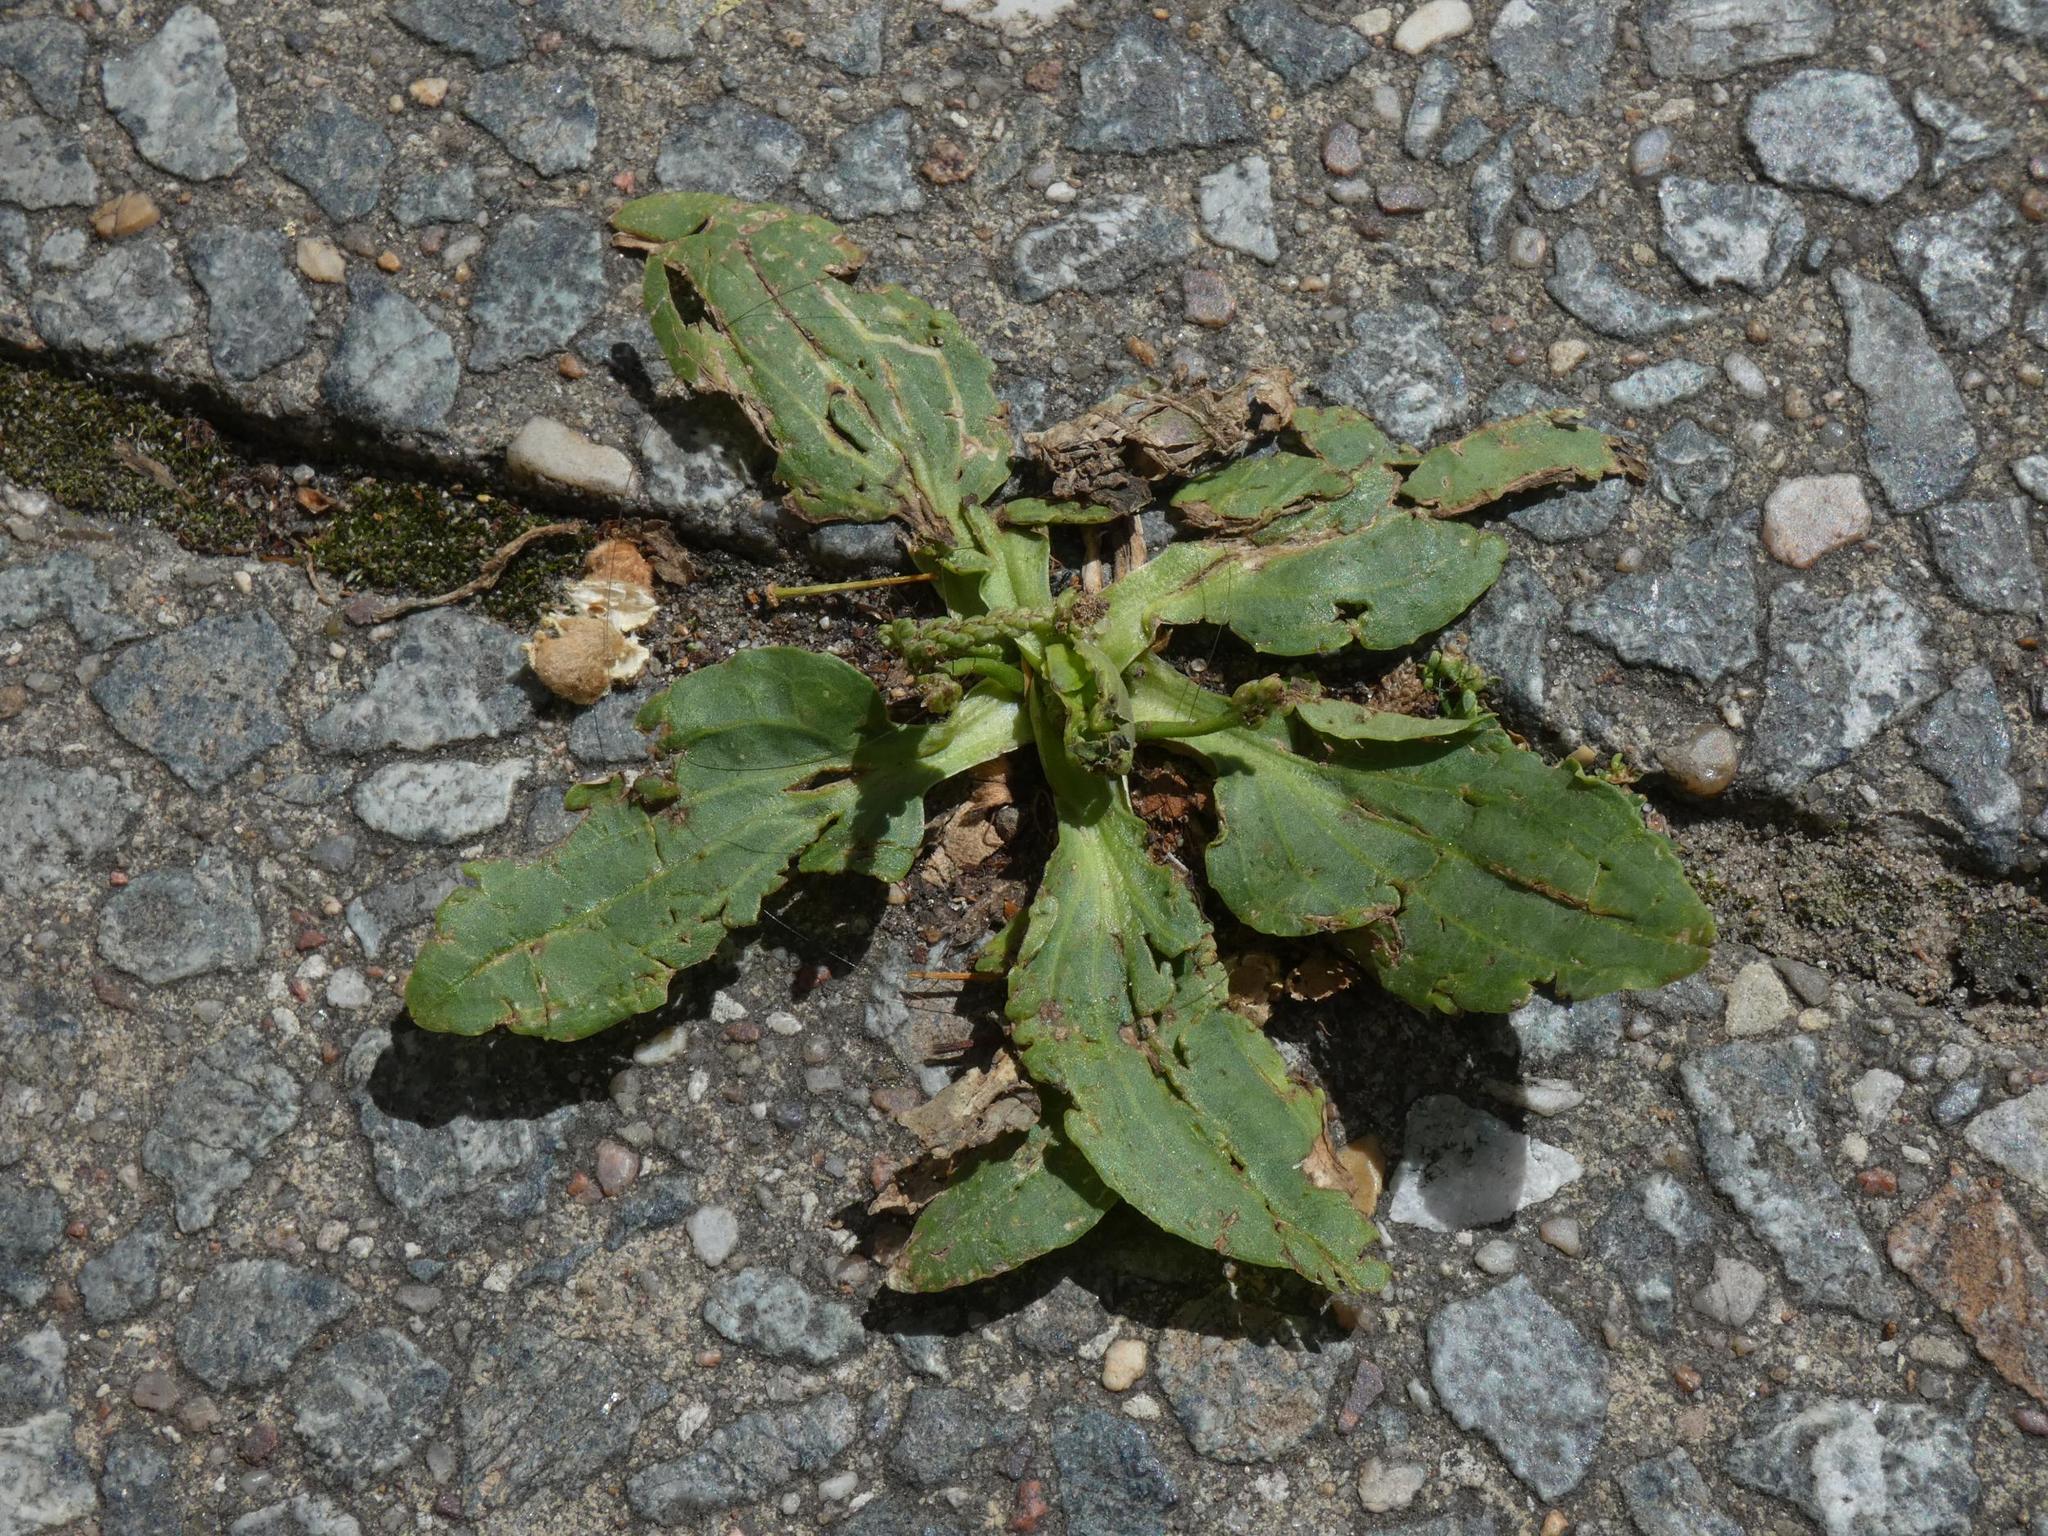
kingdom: Plantae
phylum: Tracheophyta
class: Magnoliopsida
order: Lamiales
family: Plantaginaceae
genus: Plantago
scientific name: Plantago major
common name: Common plantain
